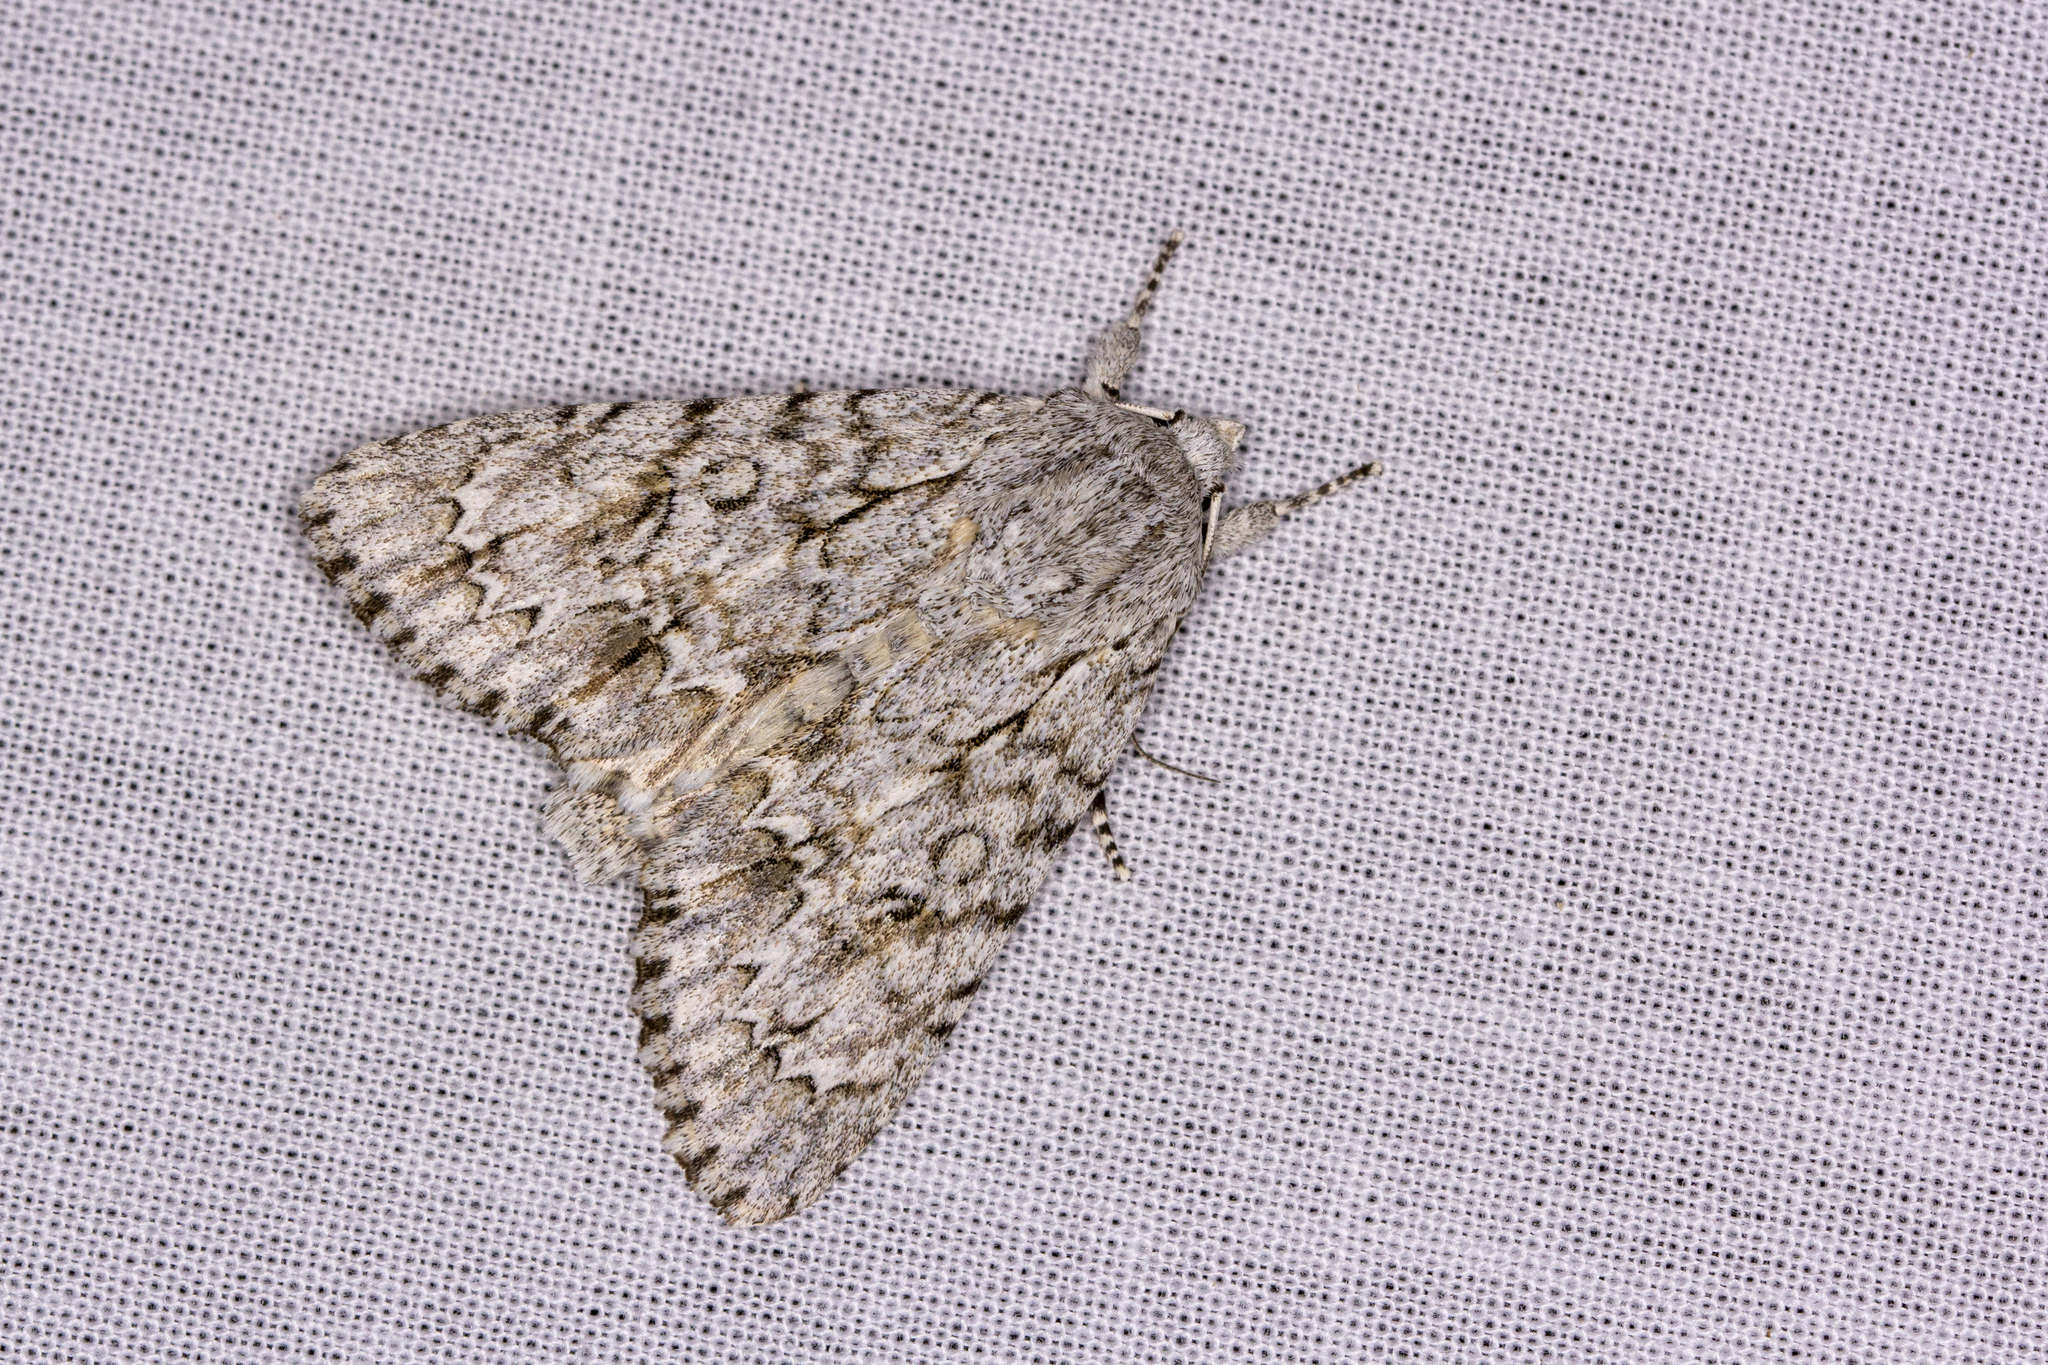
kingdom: Animalia
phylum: Arthropoda
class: Insecta
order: Lepidoptera
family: Noctuidae
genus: Acronicta
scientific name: Acronicta aceris
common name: Sycamore
